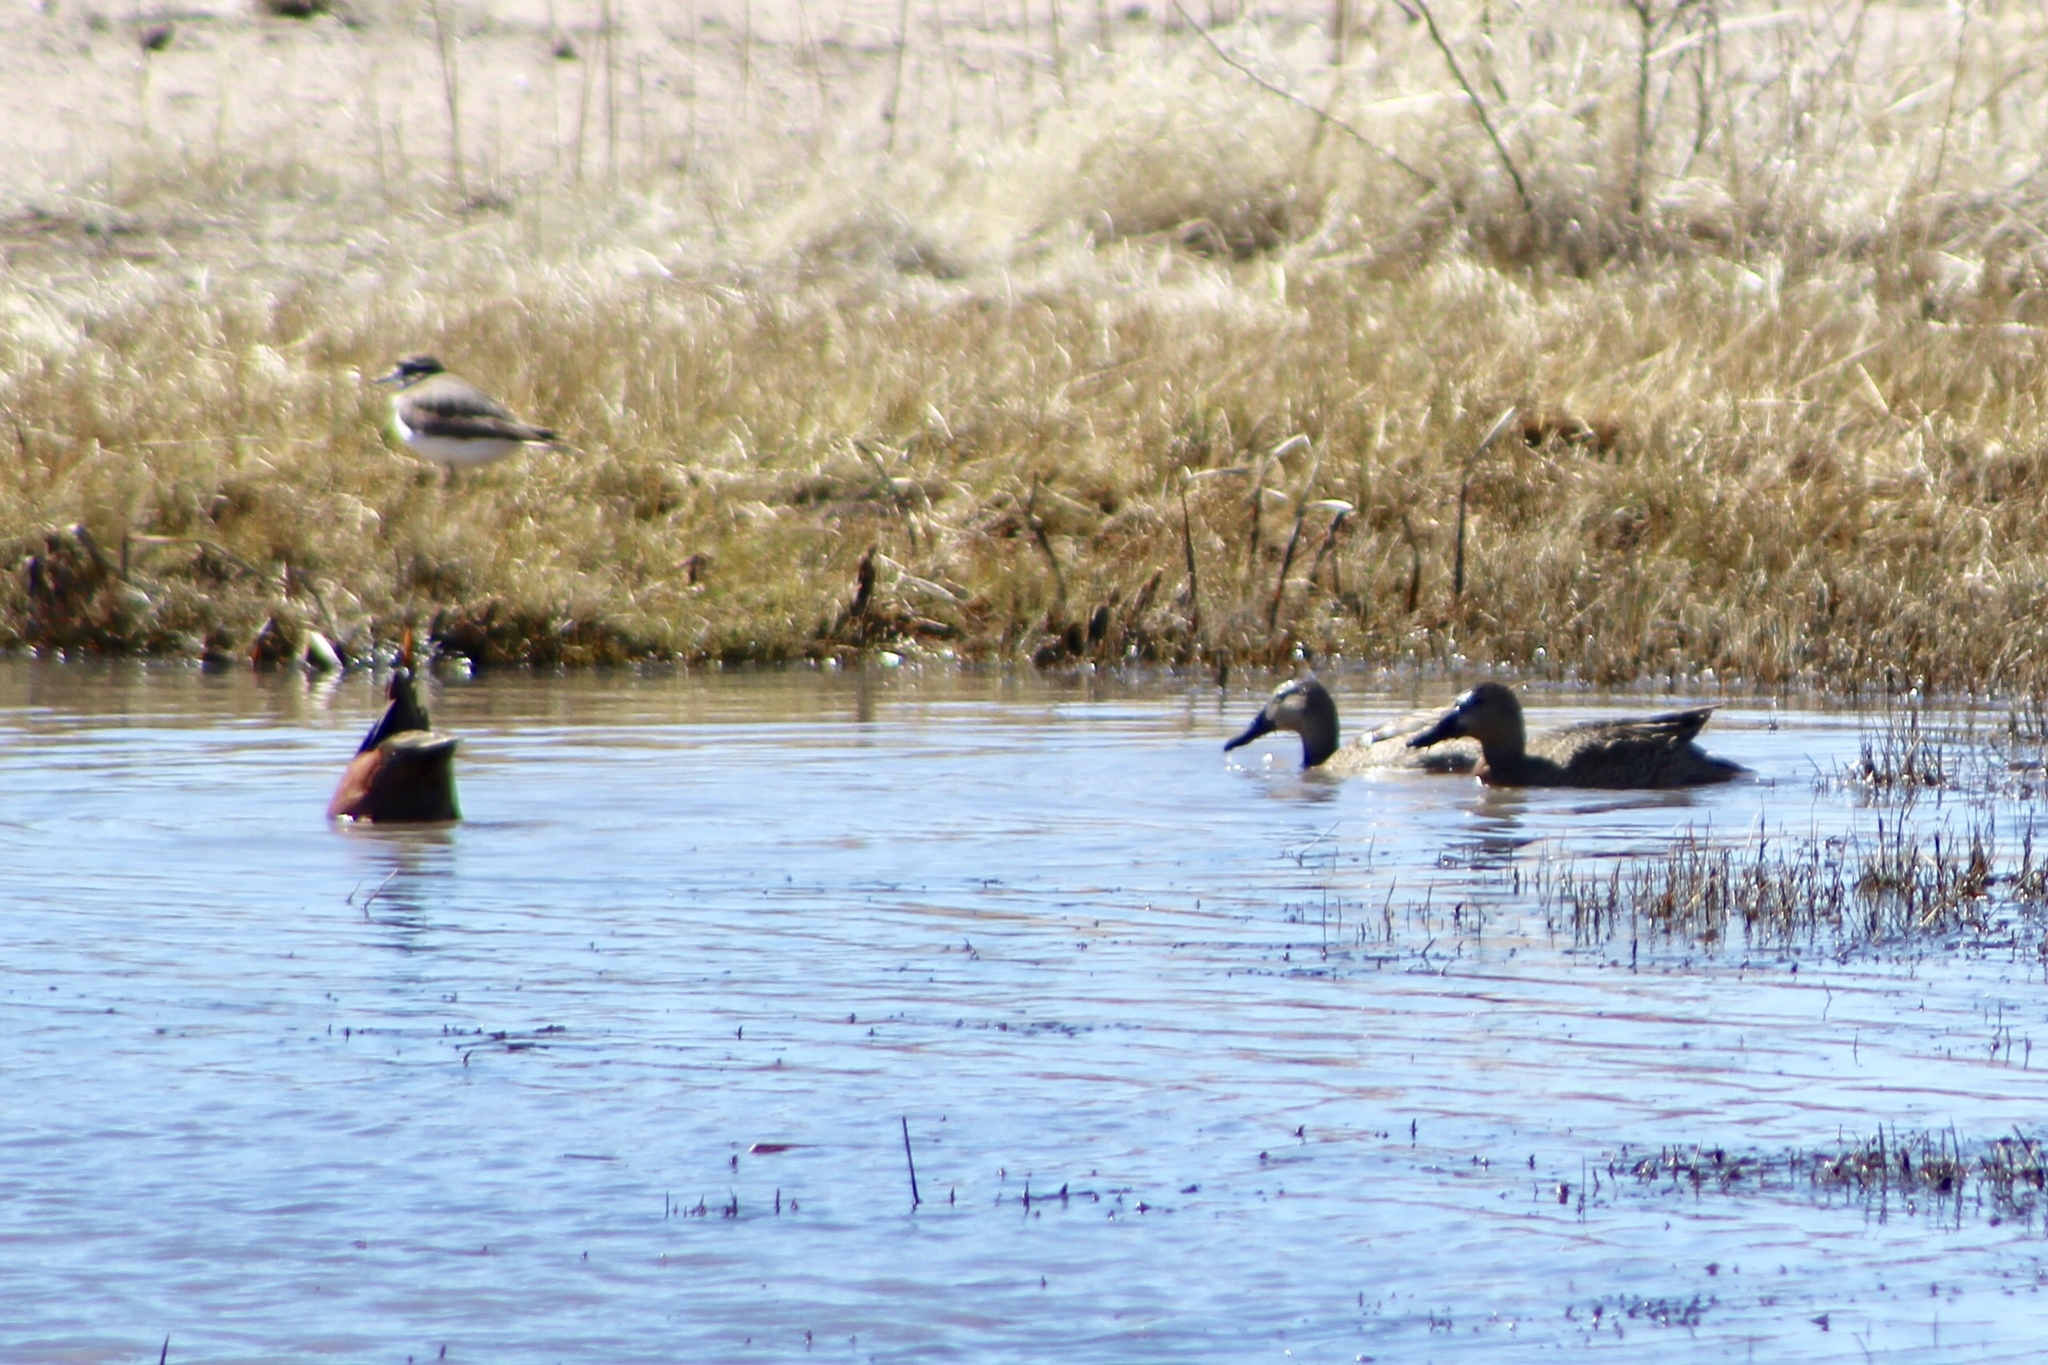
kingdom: Animalia
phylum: Chordata
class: Aves
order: Anseriformes
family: Anatidae
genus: Spatula
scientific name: Spatula cyanoptera
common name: Cinnamon teal
